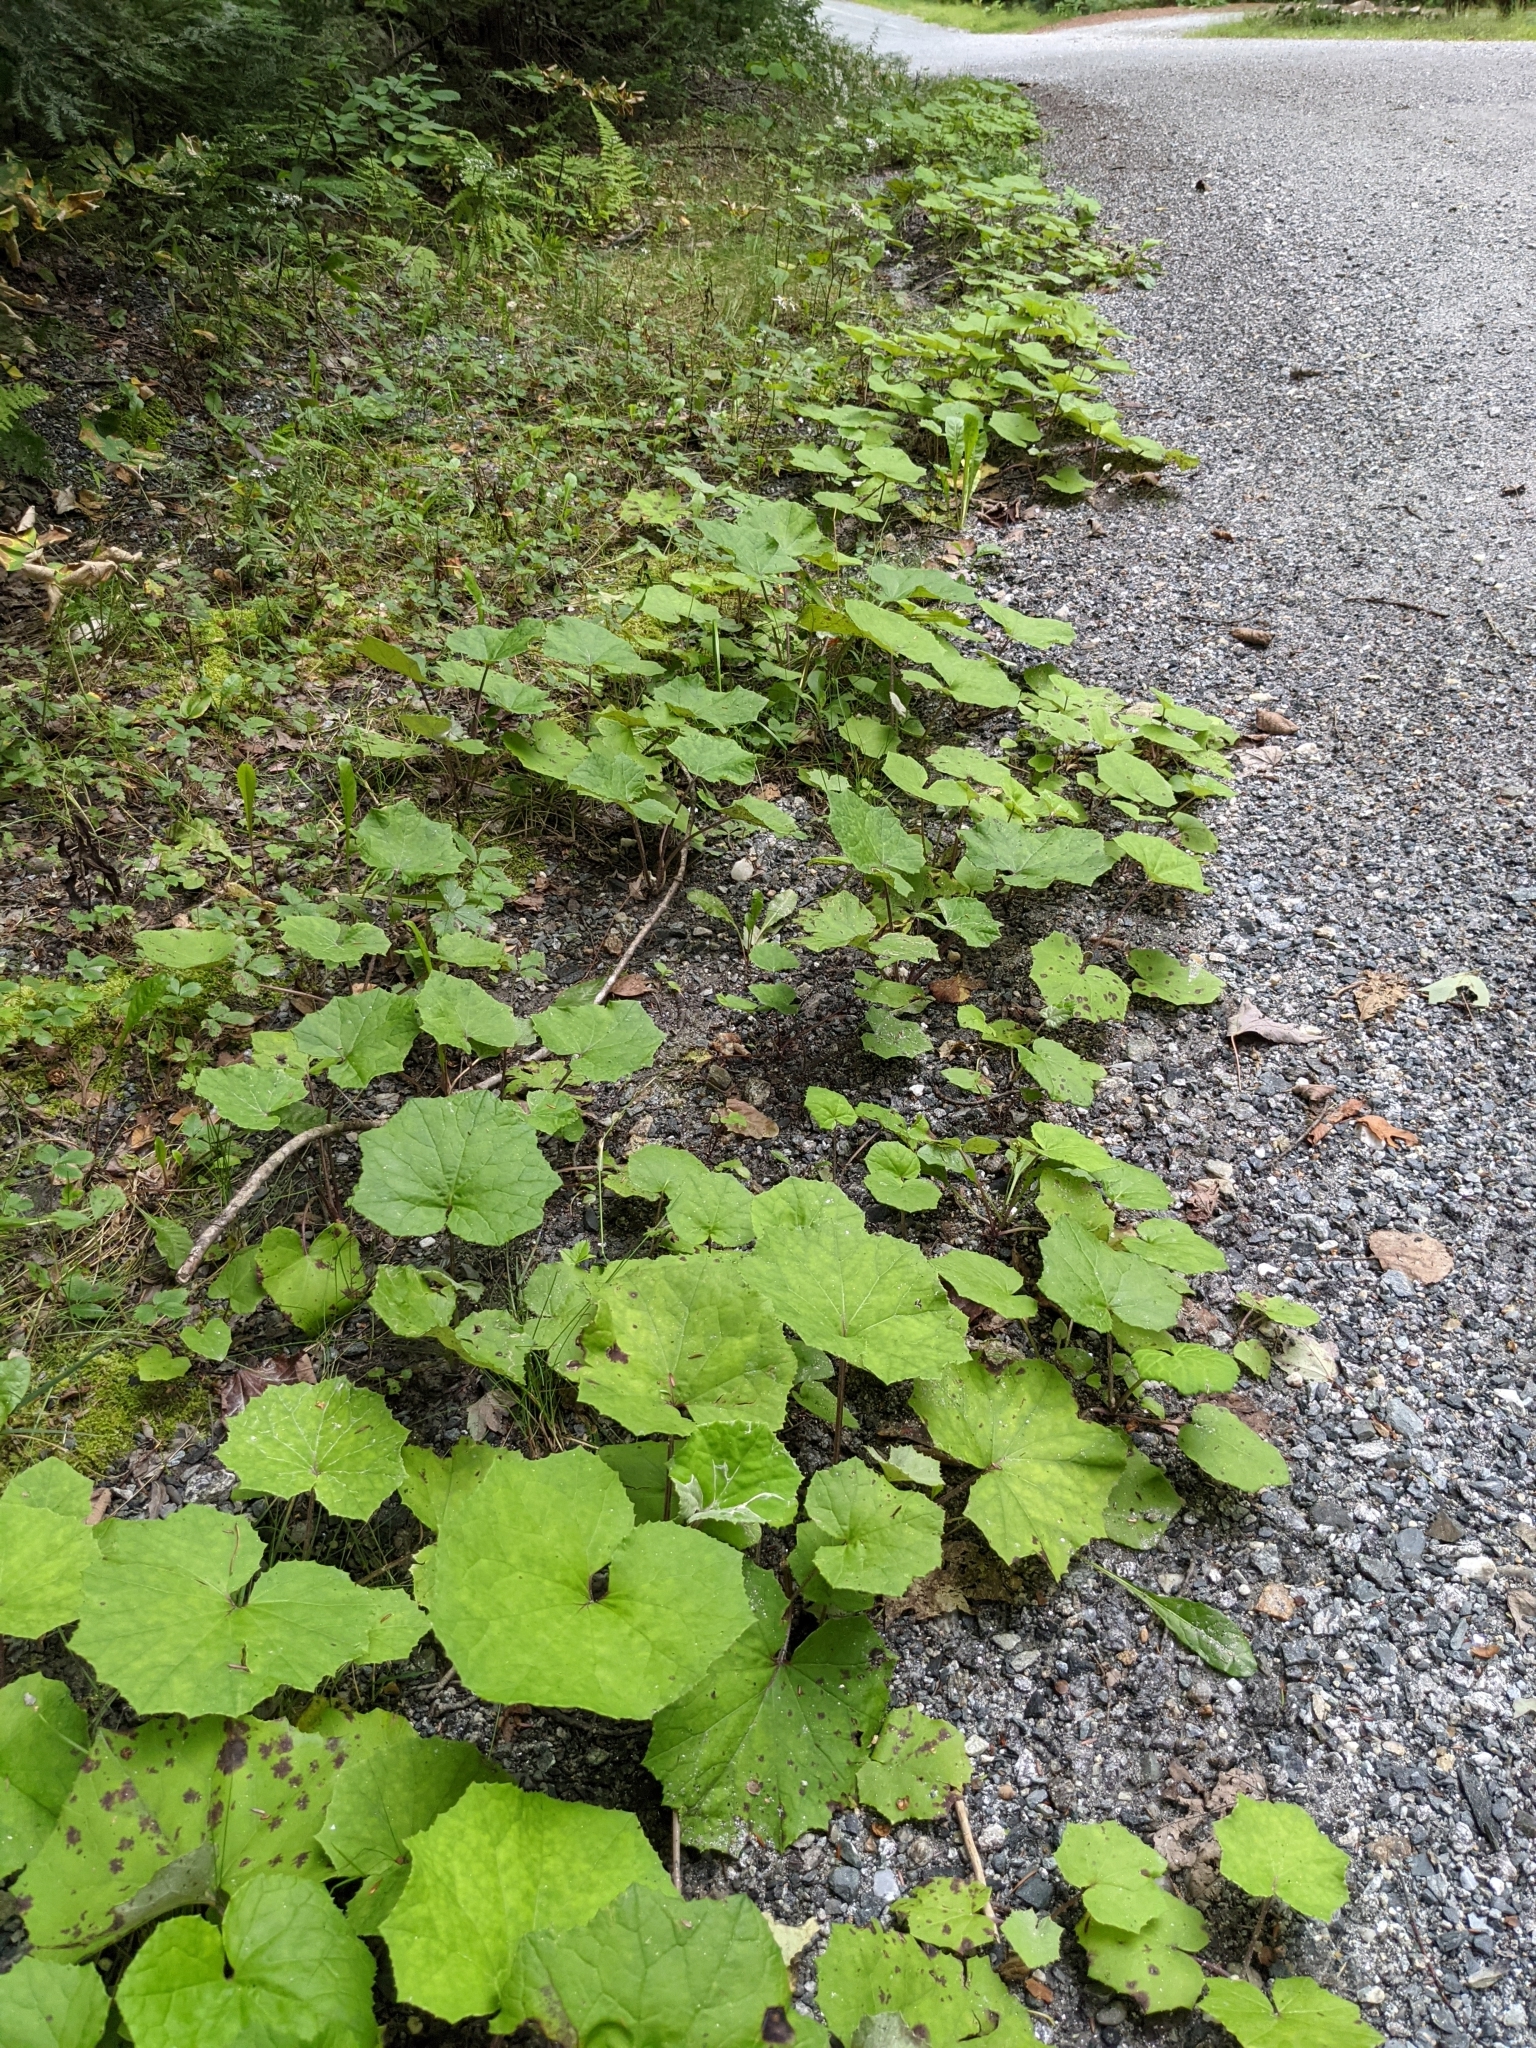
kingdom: Plantae
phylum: Tracheophyta
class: Magnoliopsida
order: Asterales
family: Asteraceae
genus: Tussilago
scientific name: Tussilago farfara
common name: Coltsfoot
